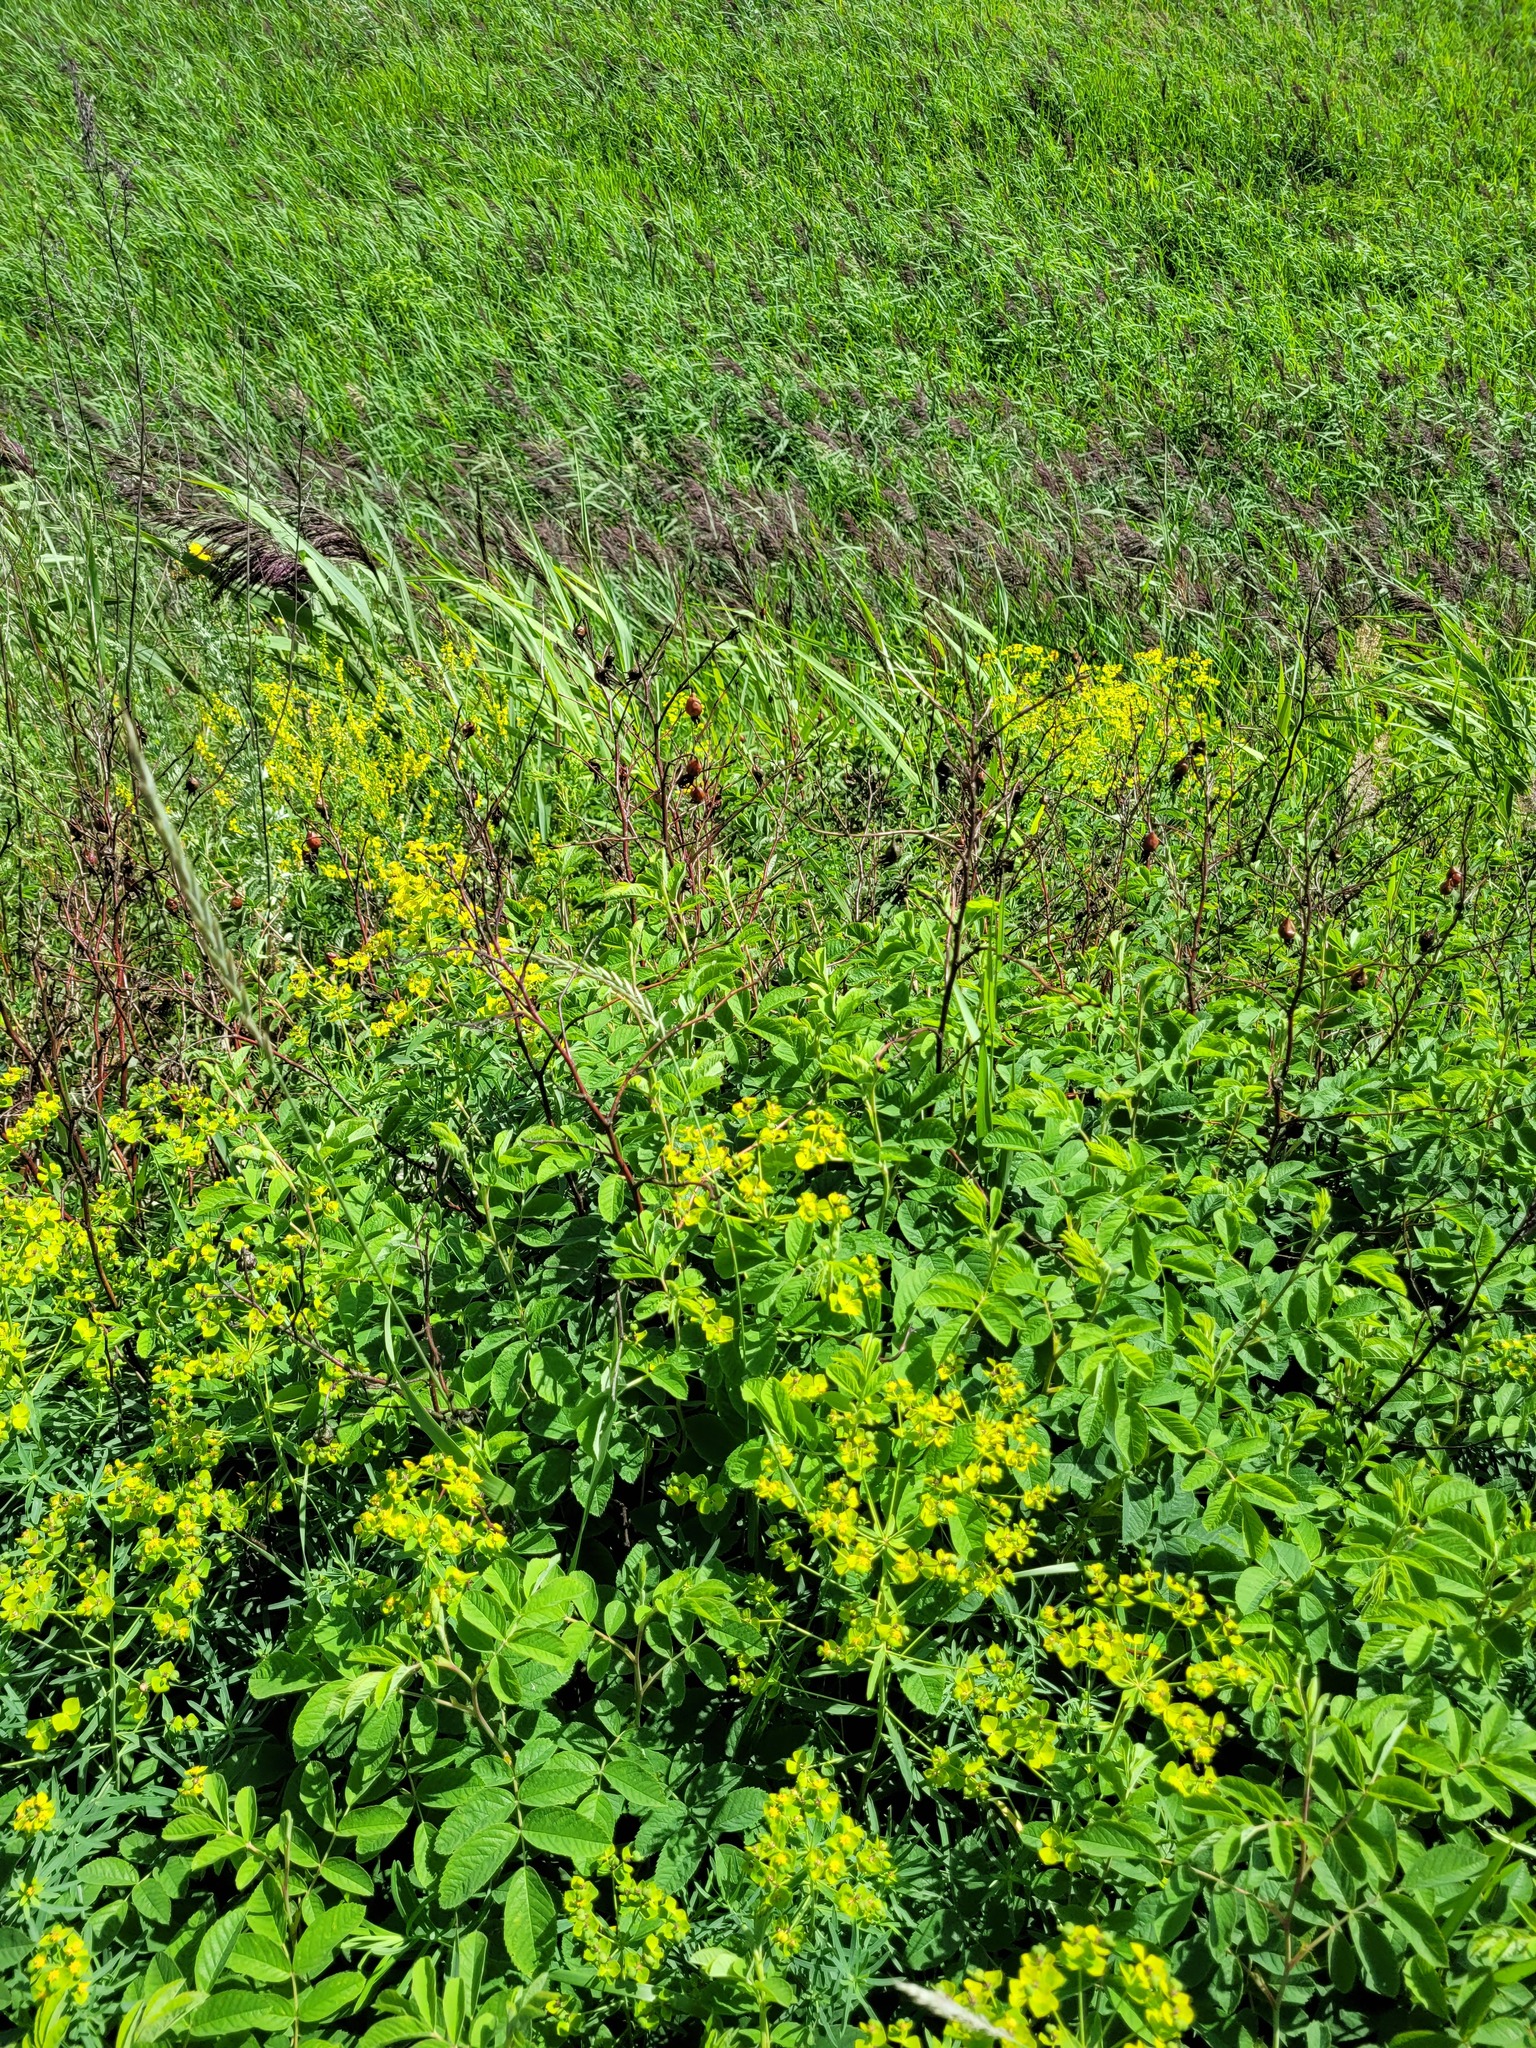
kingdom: Plantae
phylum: Tracheophyta
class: Magnoliopsida
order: Rosales
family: Rosaceae
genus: Rosa
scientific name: Rosa majalis
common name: Cinnamon rose
